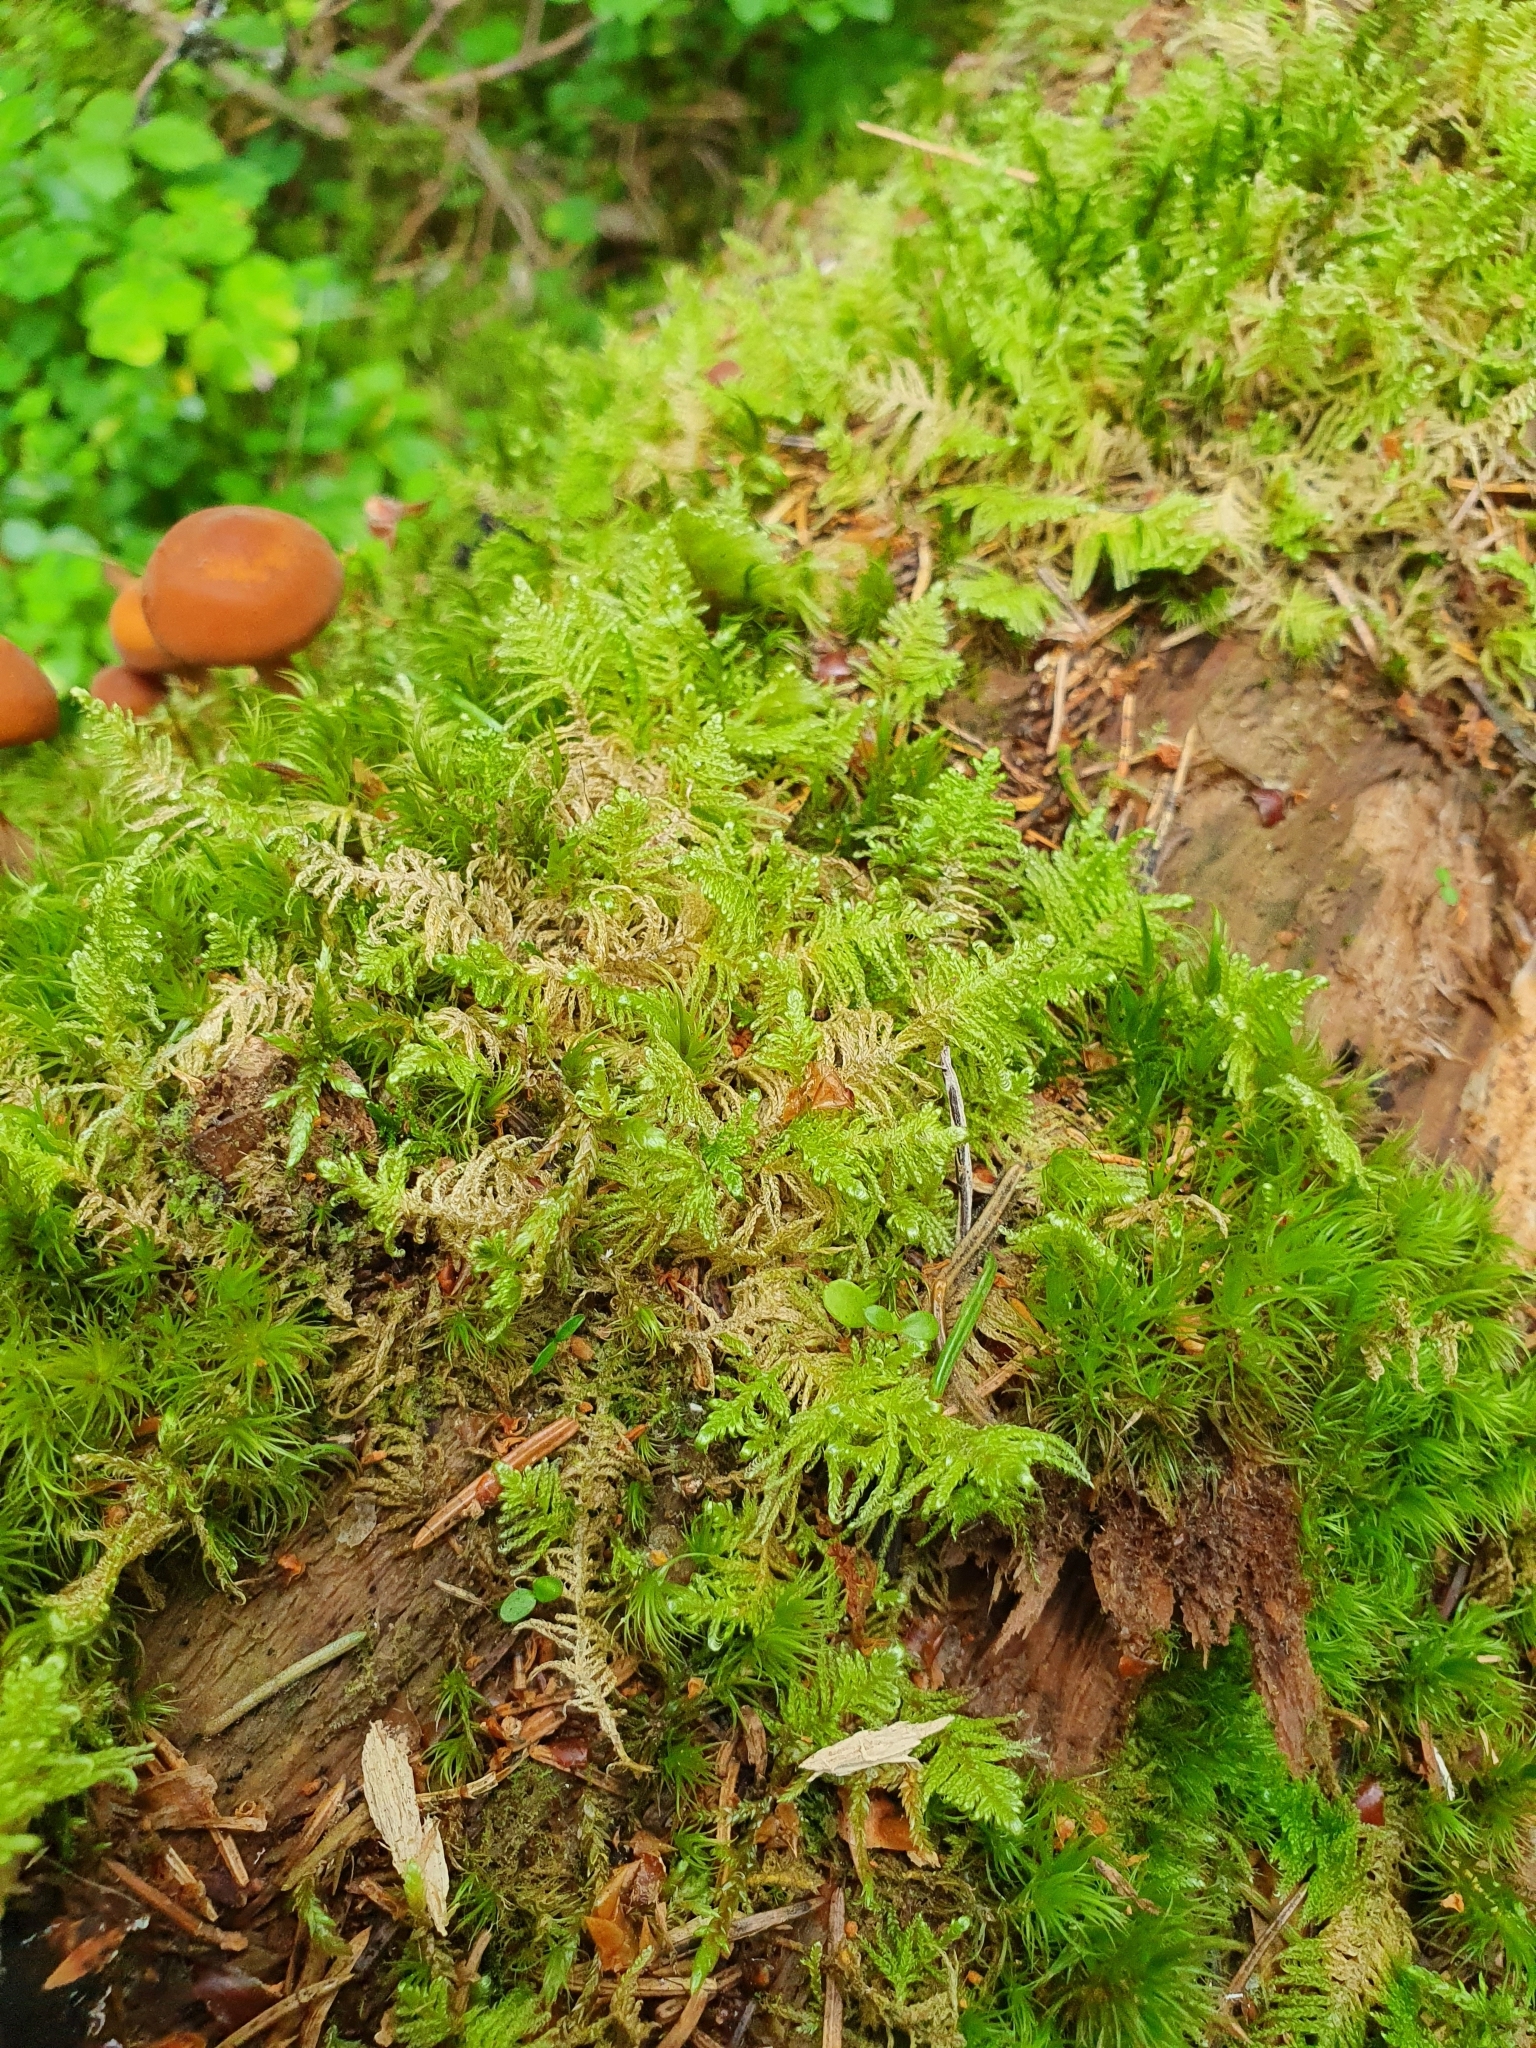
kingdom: Plantae
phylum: Bryophyta
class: Bryopsida
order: Hypnales
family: Pylaisiaceae
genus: Ptilium
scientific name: Ptilium crista-castrensis
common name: Knight's plume moss
